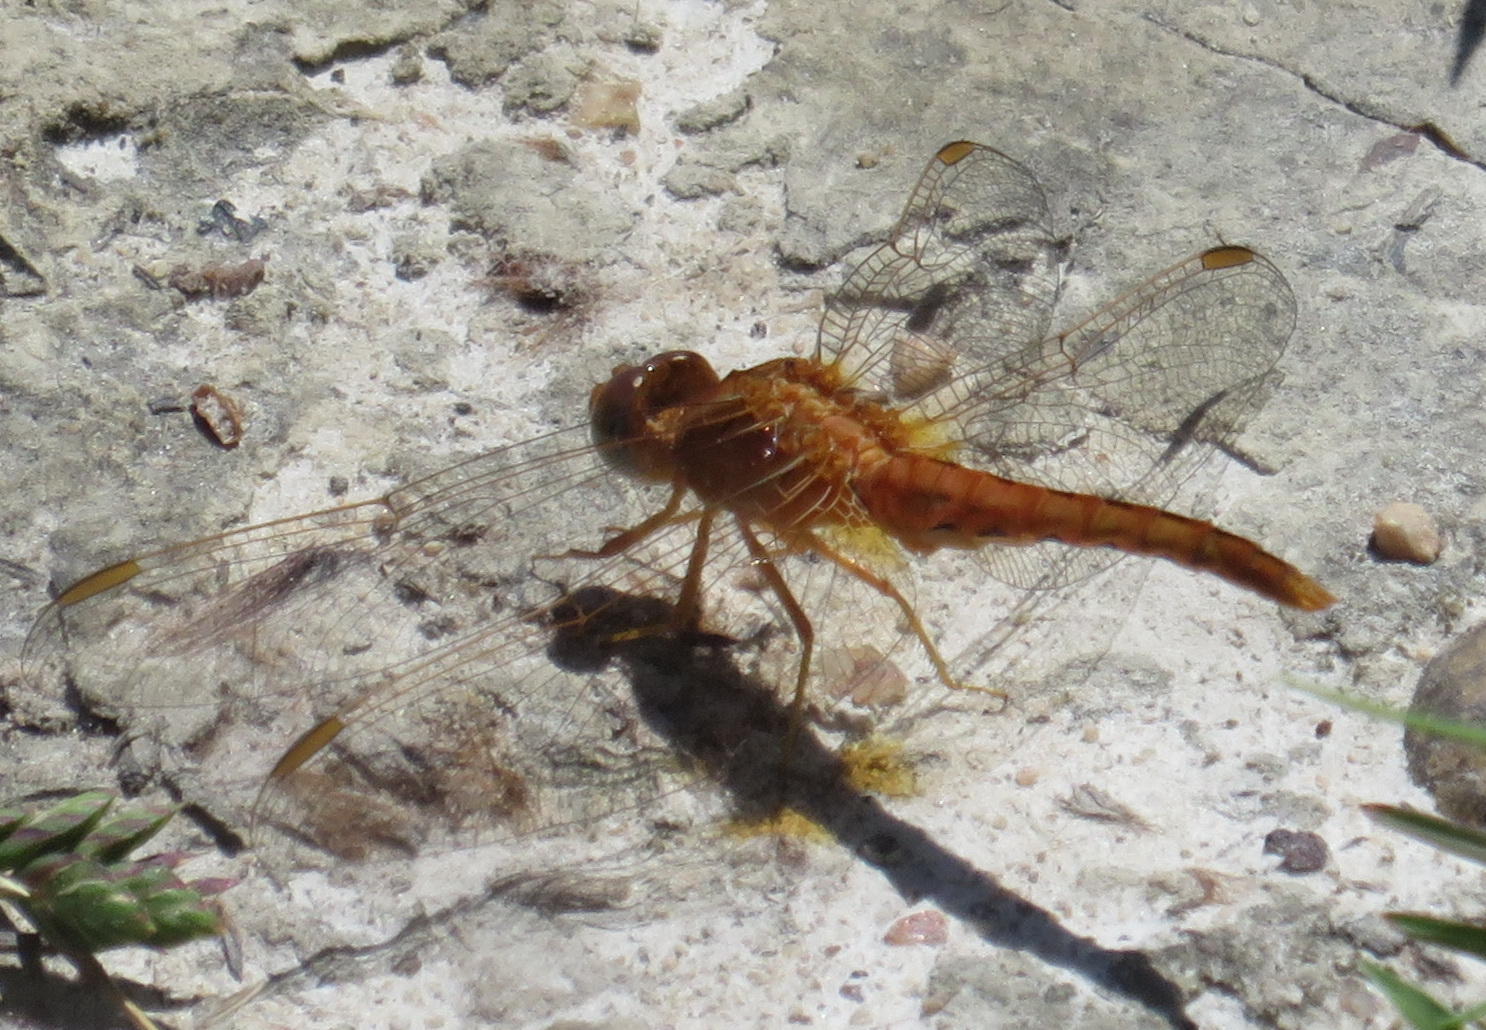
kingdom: Animalia
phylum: Arthropoda
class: Insecta
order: Odonata
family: Libellulidae
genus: Crocothemis
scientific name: Crocothemis sanguinolenta
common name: Little scarlet
